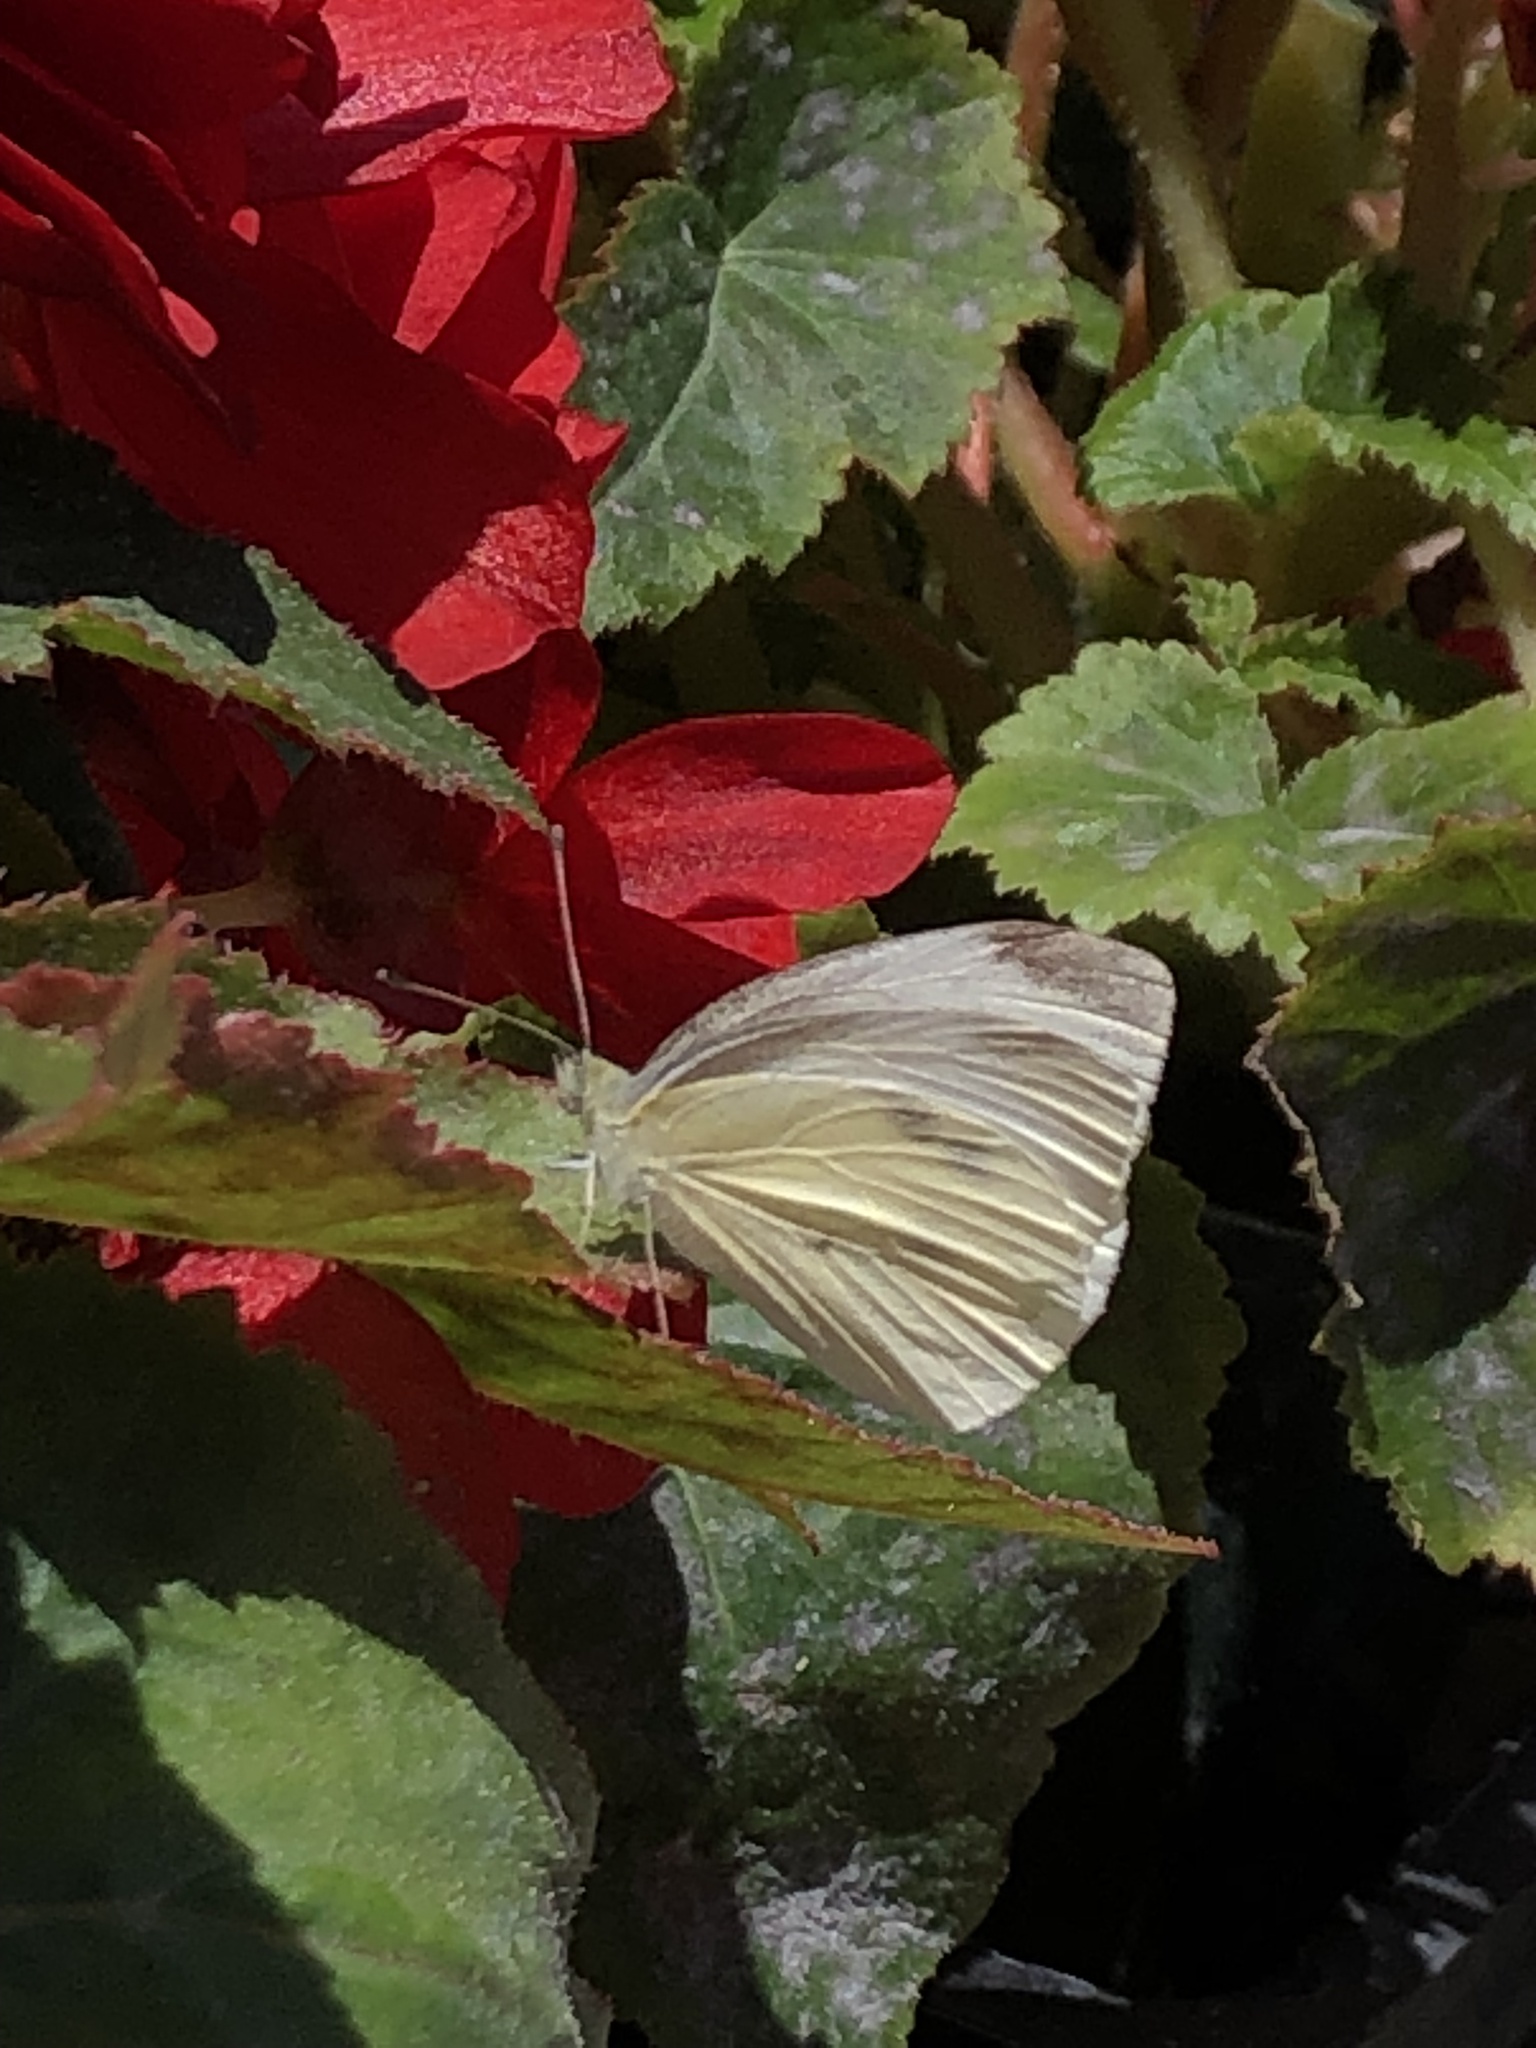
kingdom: Animalia
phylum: Arthropoda
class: Insecta
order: Lepidoptera
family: Pieridae
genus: Pieris
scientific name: Pieris rapae
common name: Small white
